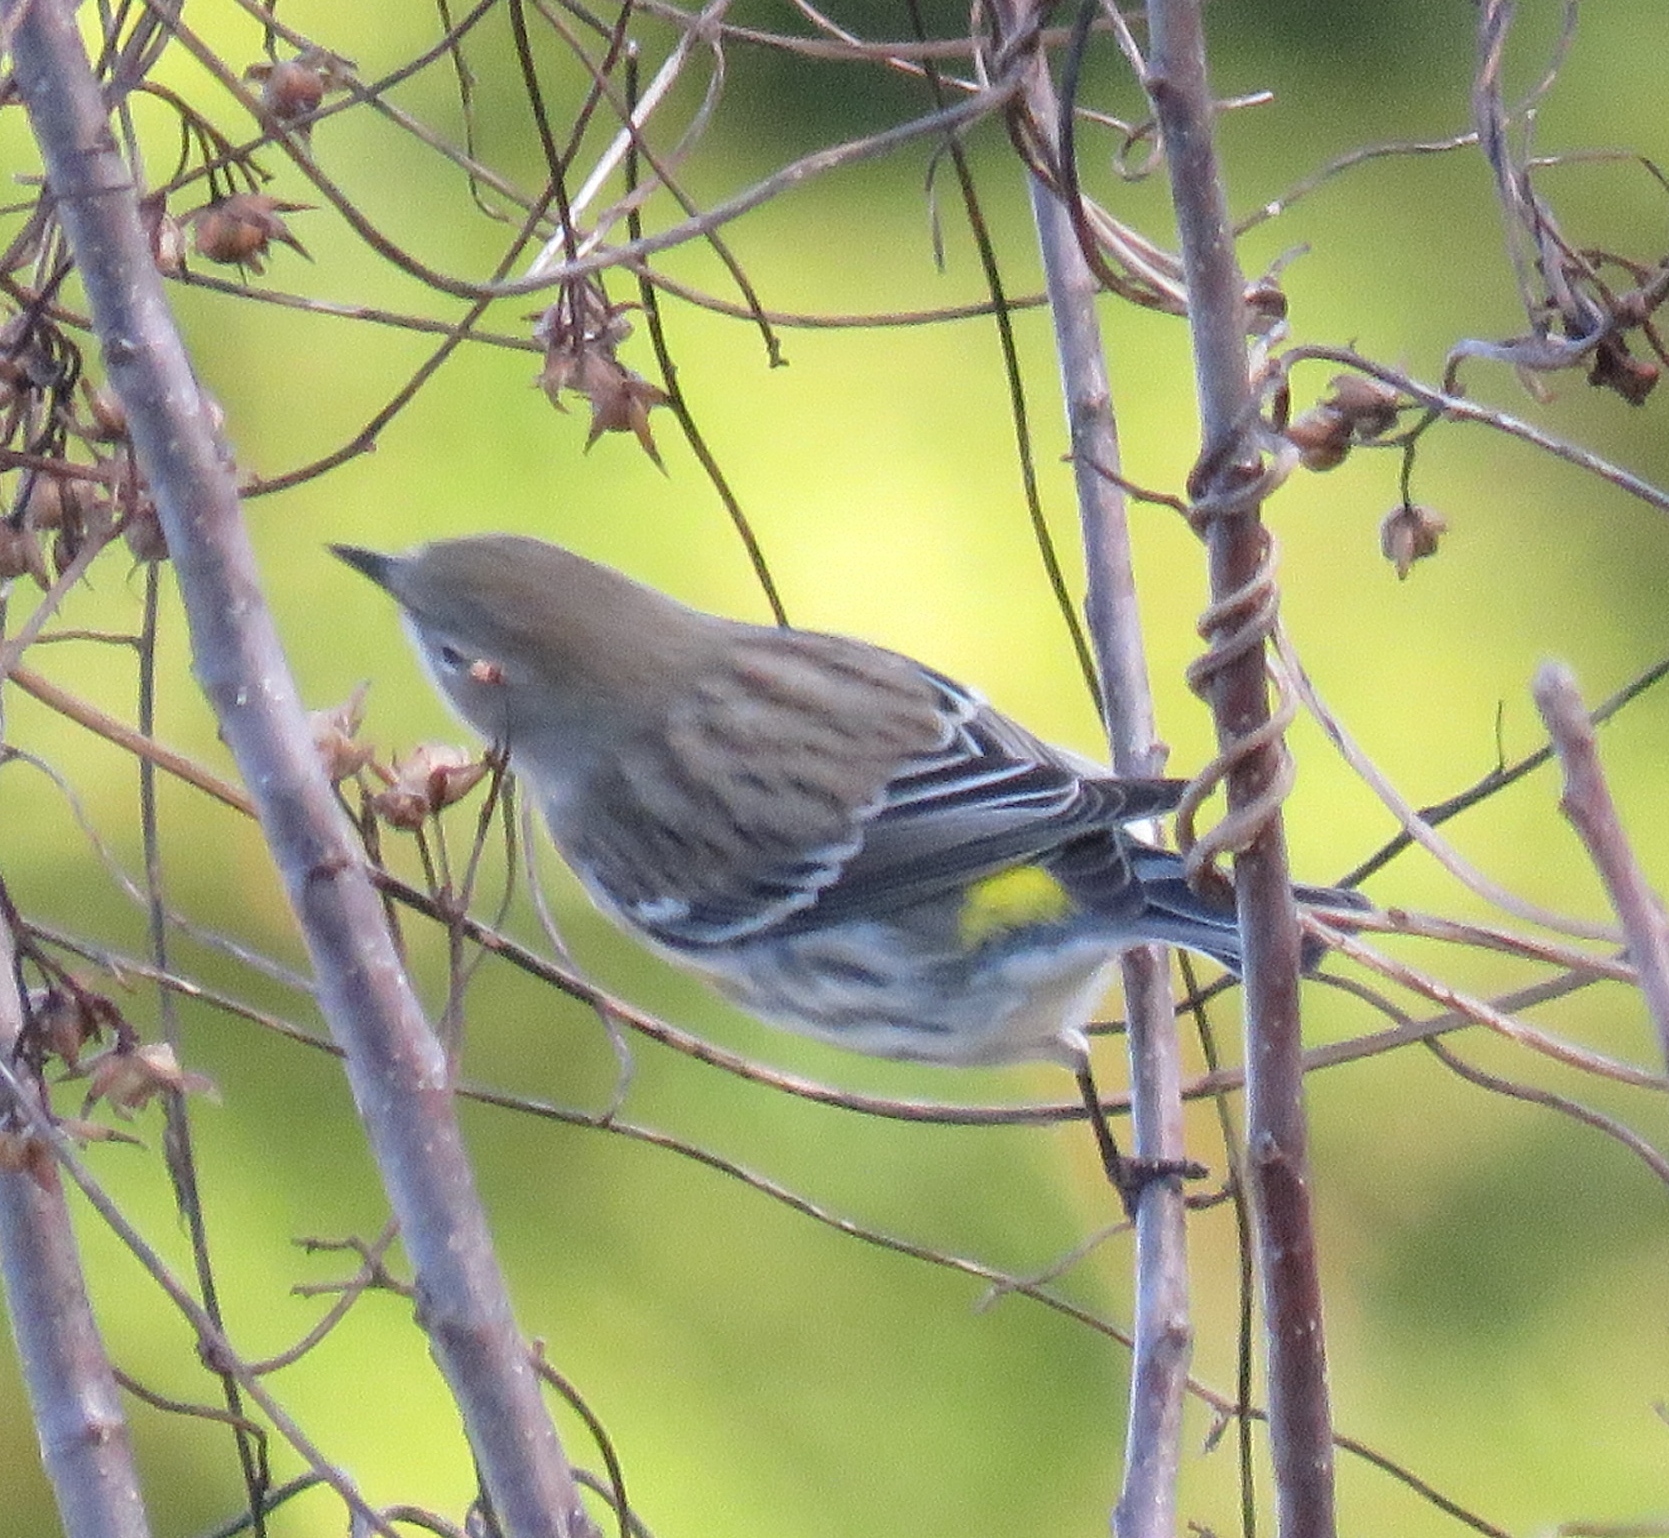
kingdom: Animalia
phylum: Chordata
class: Aves
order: Passeriformes
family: Parulidae
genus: Setophaga
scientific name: Setophaga coronata
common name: Myrtle warbler
